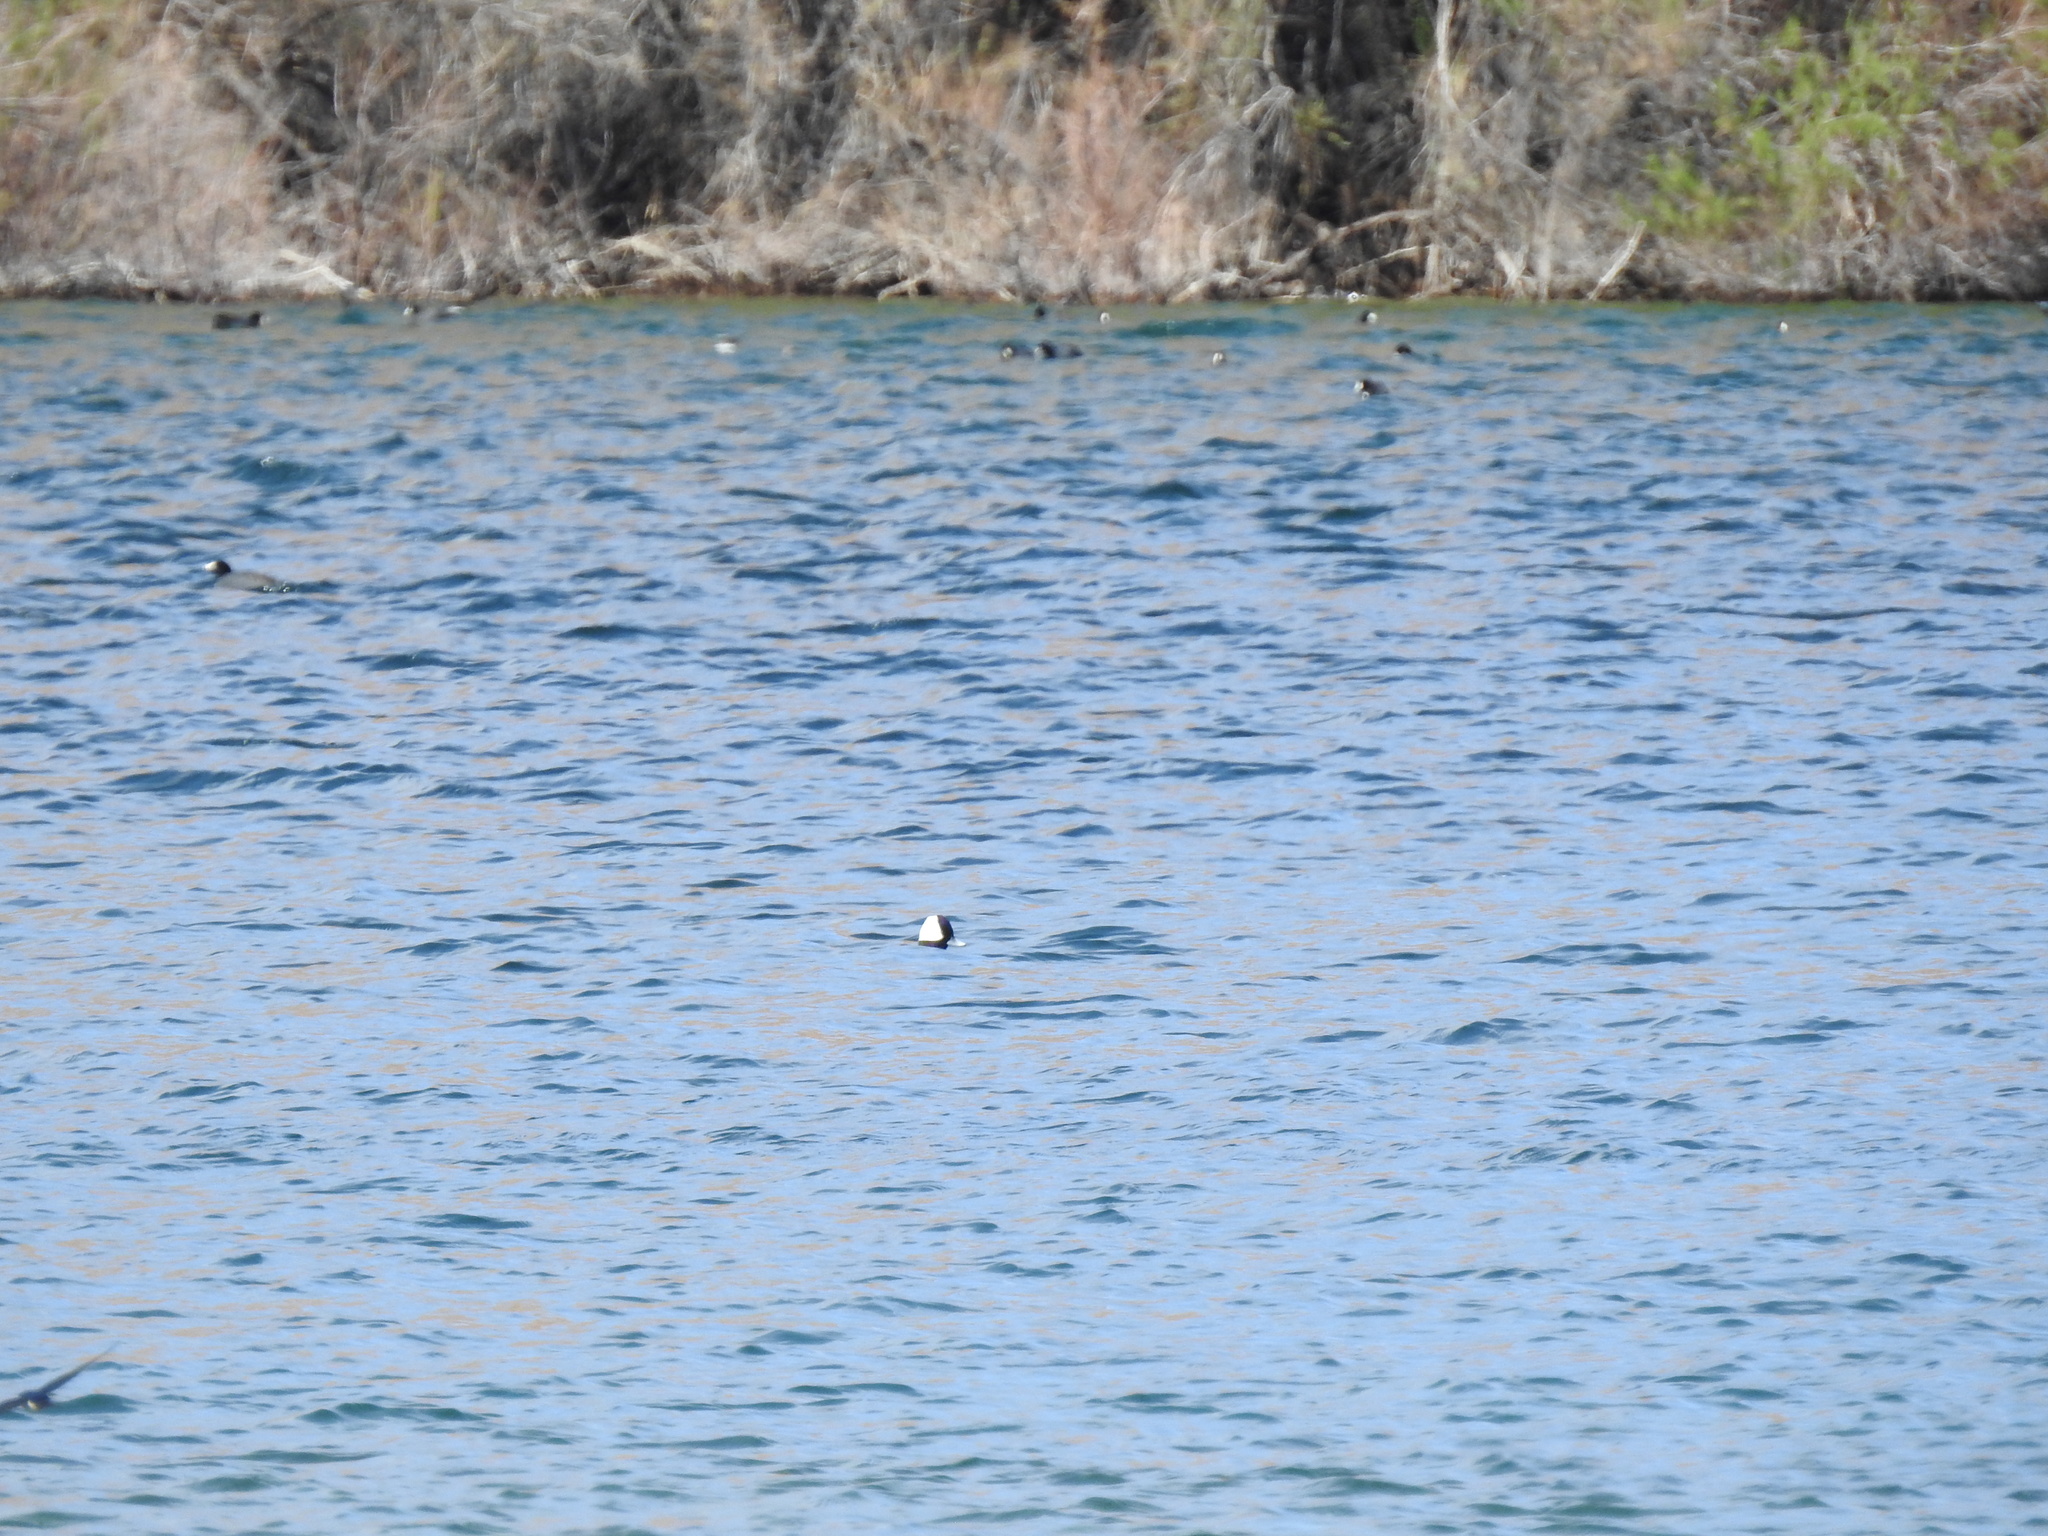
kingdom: Animalia
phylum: Chordata
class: Aves
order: Anseriformes
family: Anatidae
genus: Bucephala
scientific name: Bucephala albeola
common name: Bufflehead
